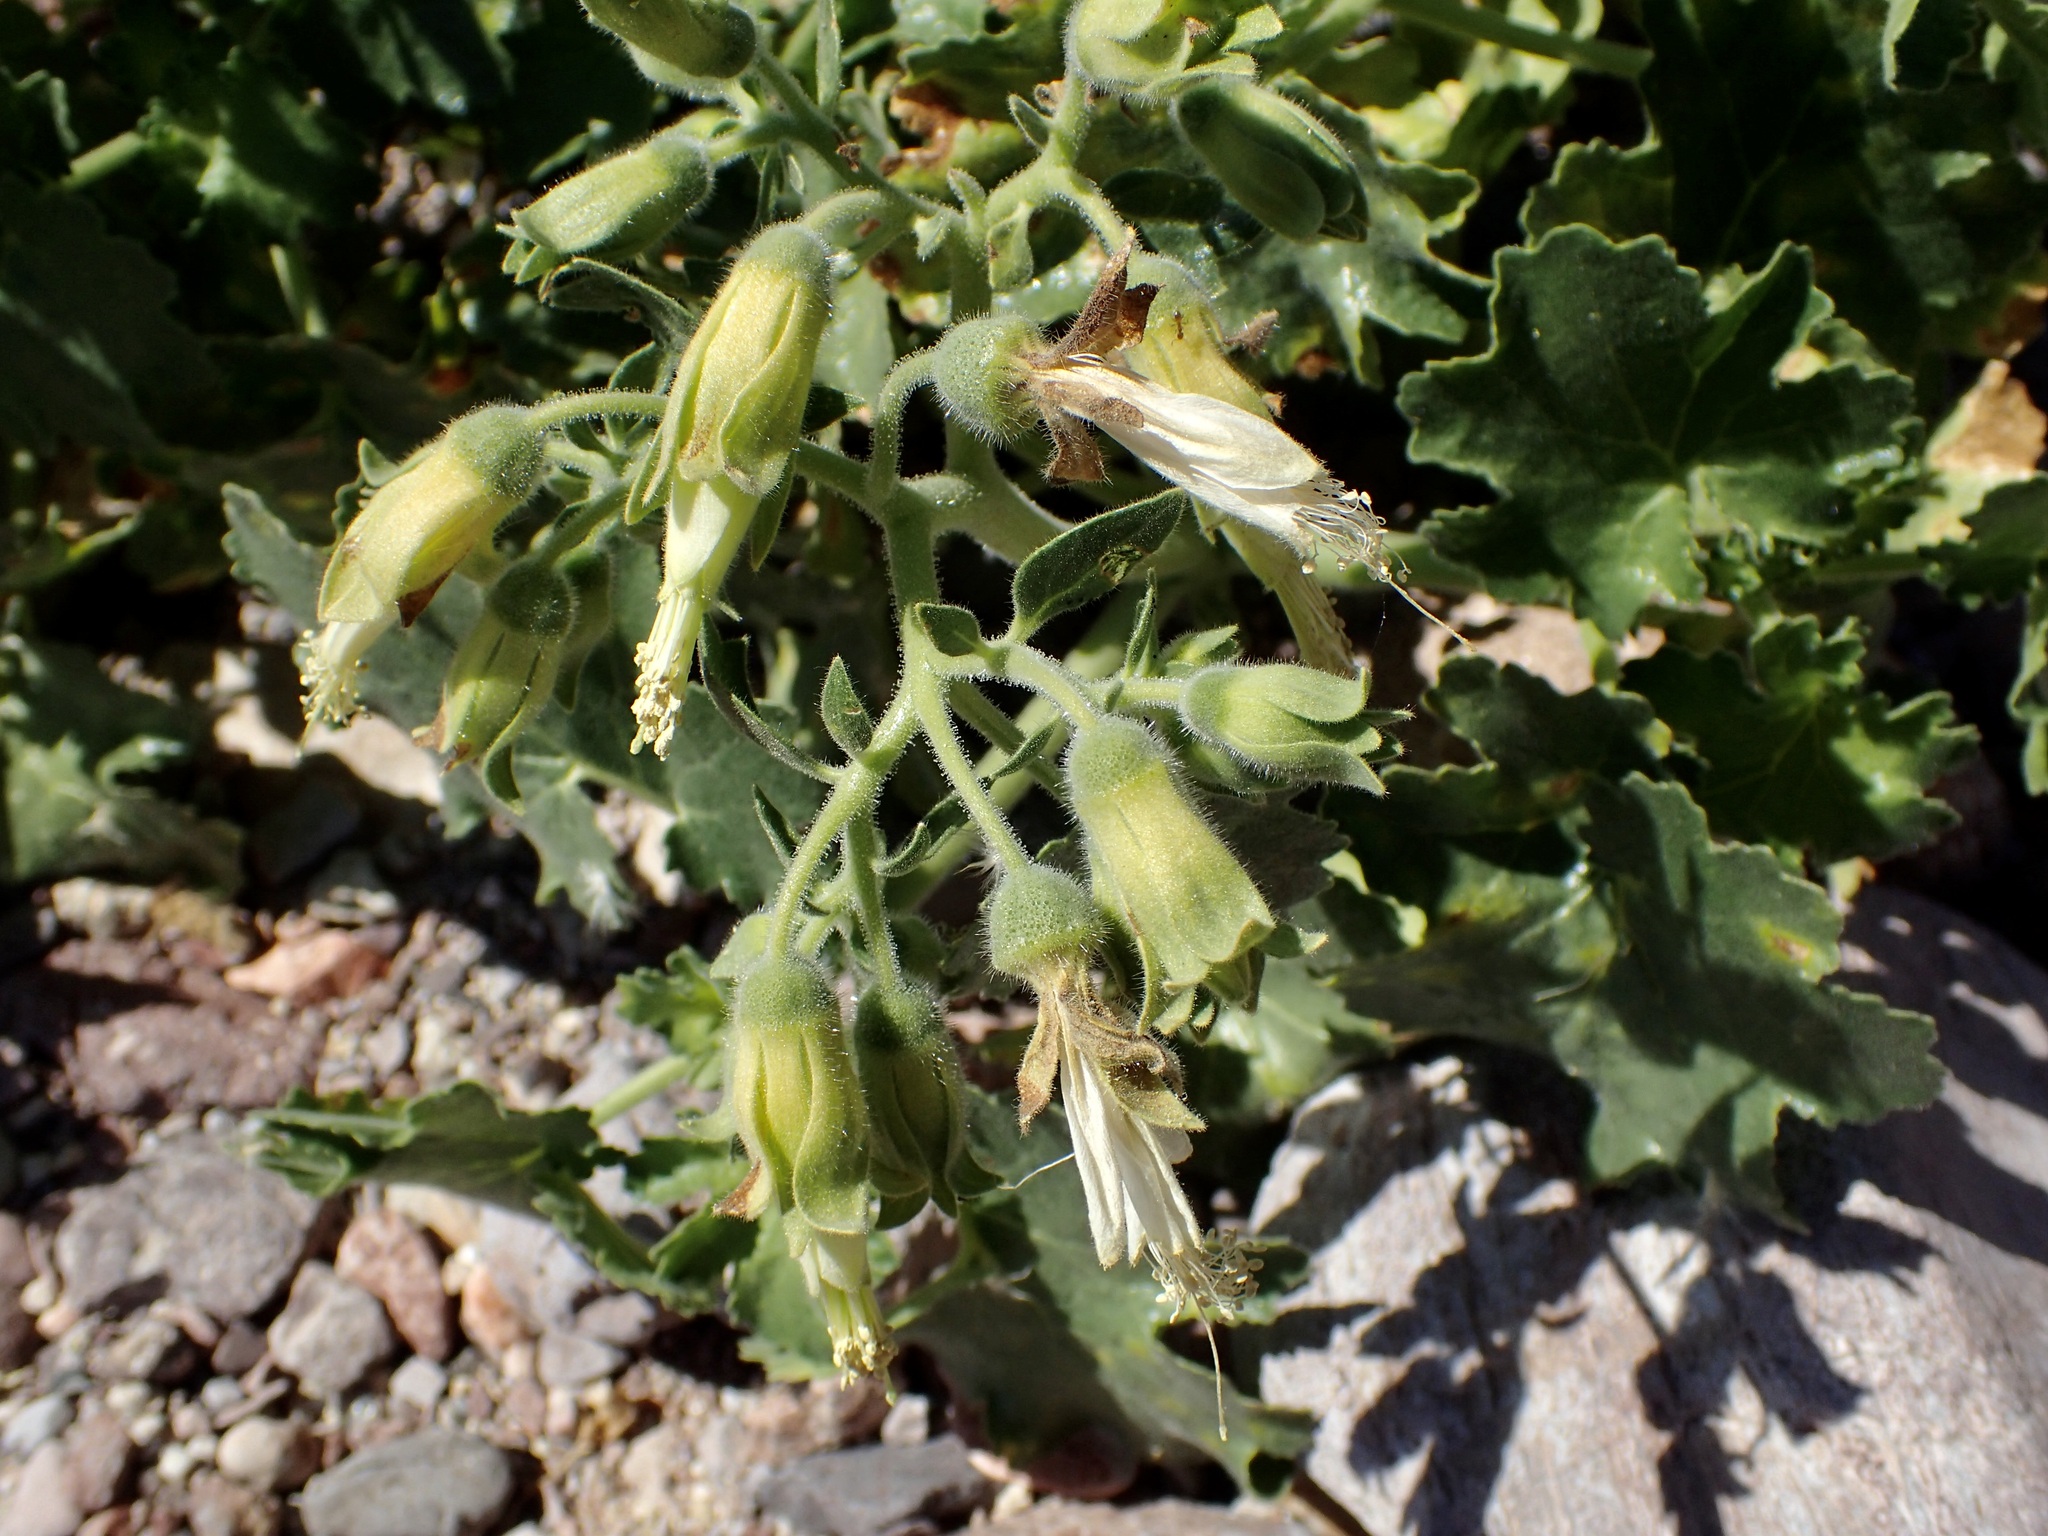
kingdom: Plantae
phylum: Tracheophyta
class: Magnoliopsida
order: Cornales
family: Loasaceae
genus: Eucnide
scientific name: Eucnide cordata
